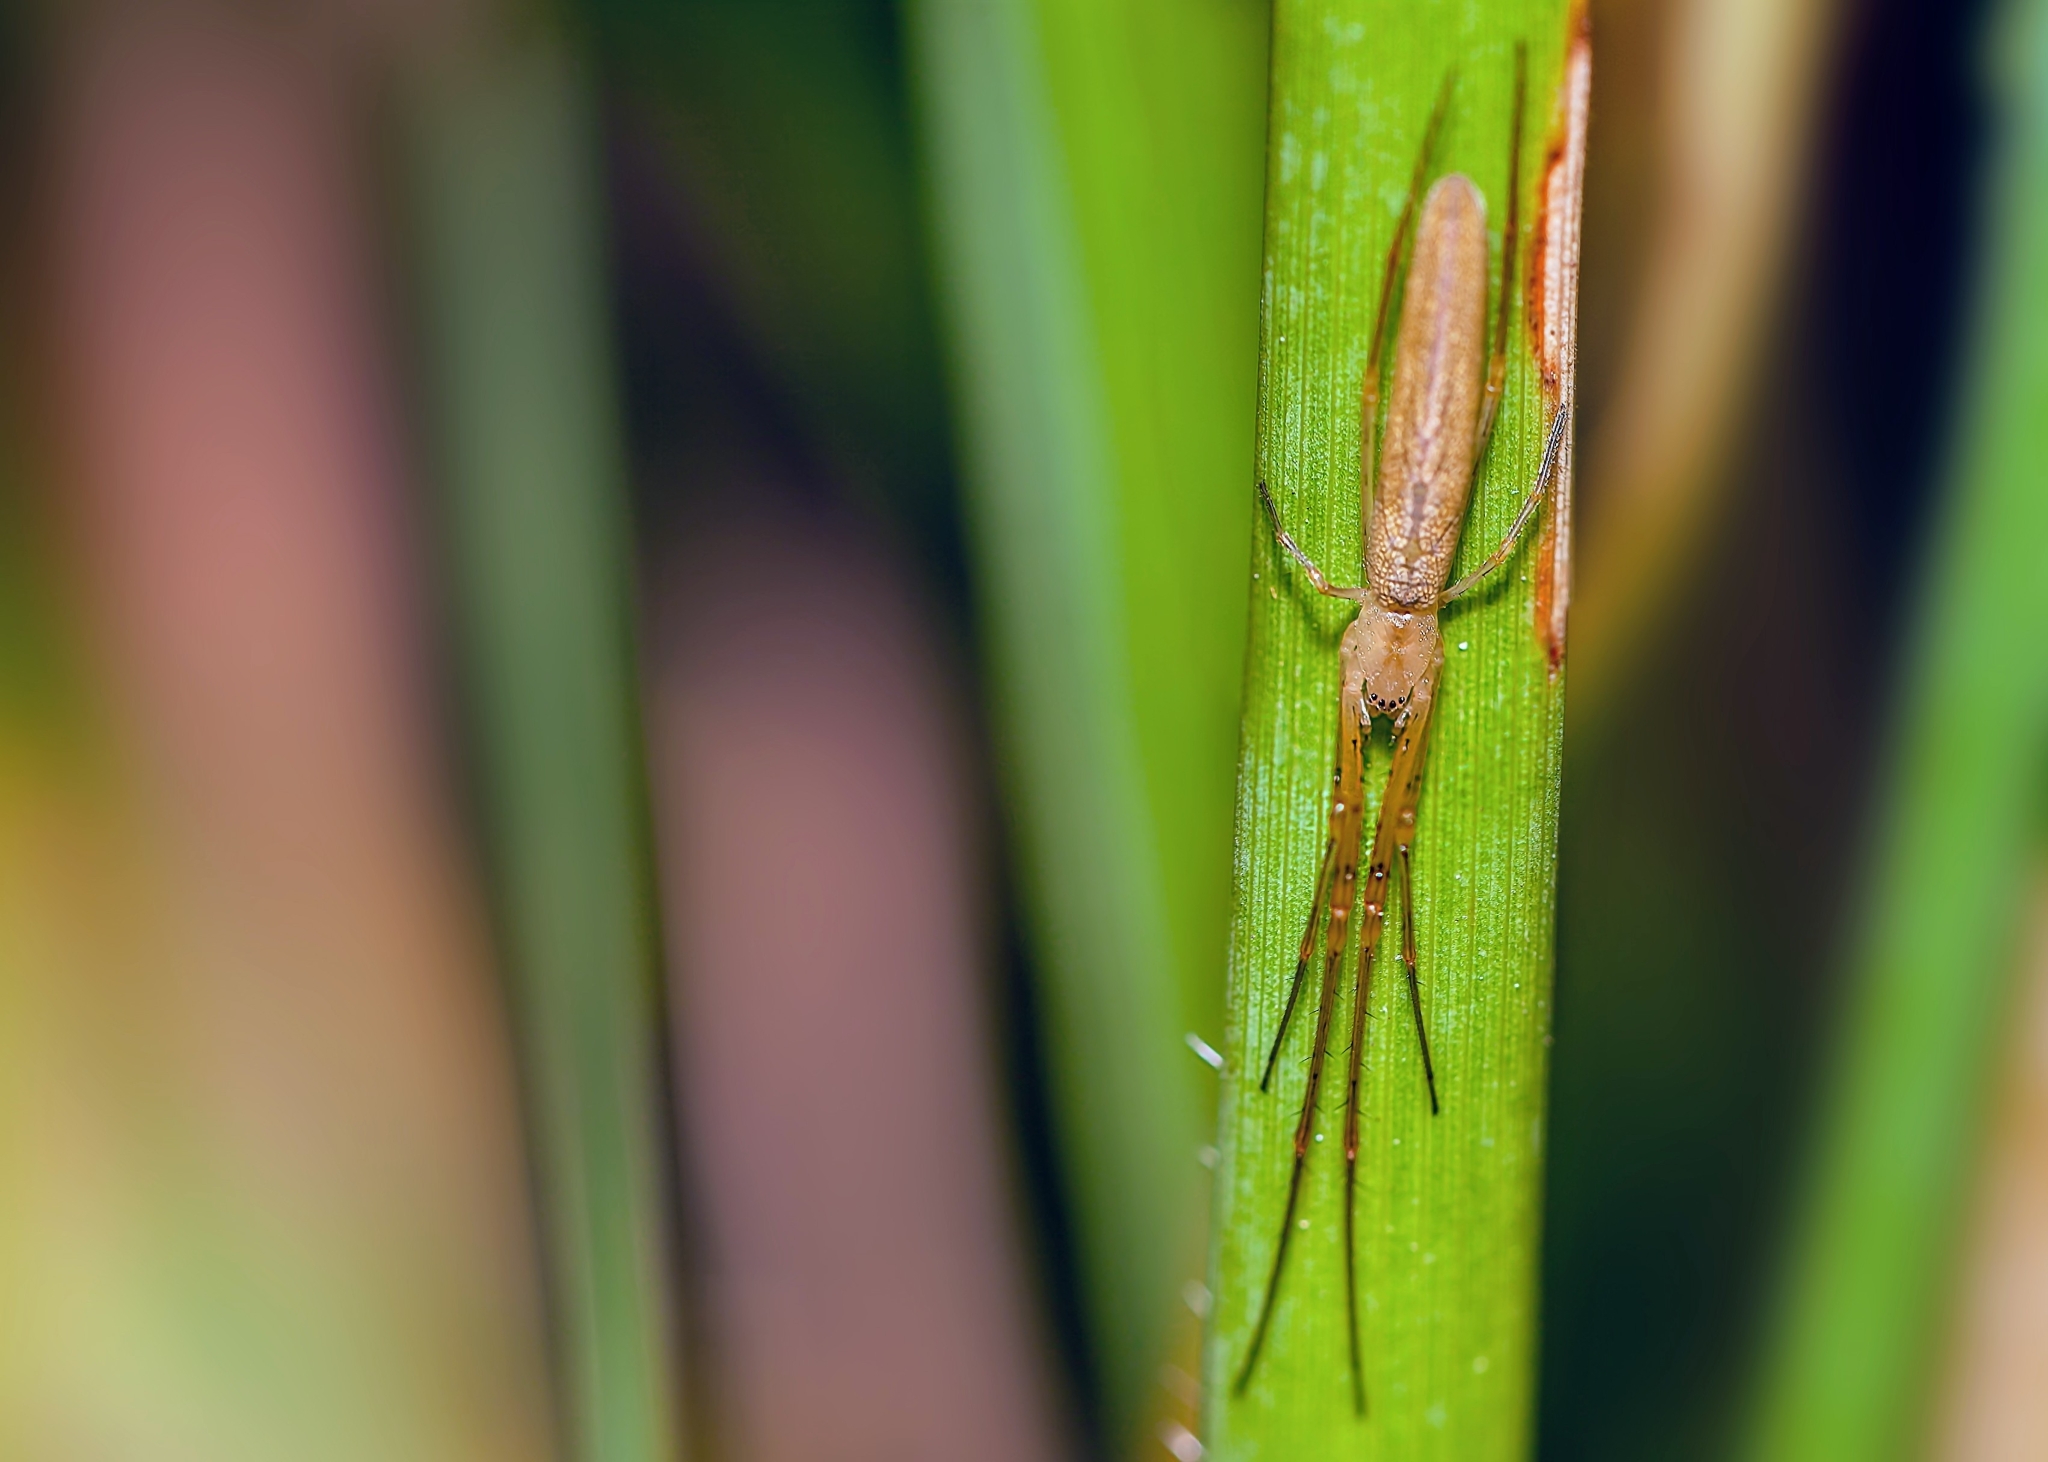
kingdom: Animalia
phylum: Arthropoda
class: Arachnida
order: Araneae
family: Tetragnathidae
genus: Tetragnatha
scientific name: Tetragnatha laboriosa
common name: Longjawed orb weavers
